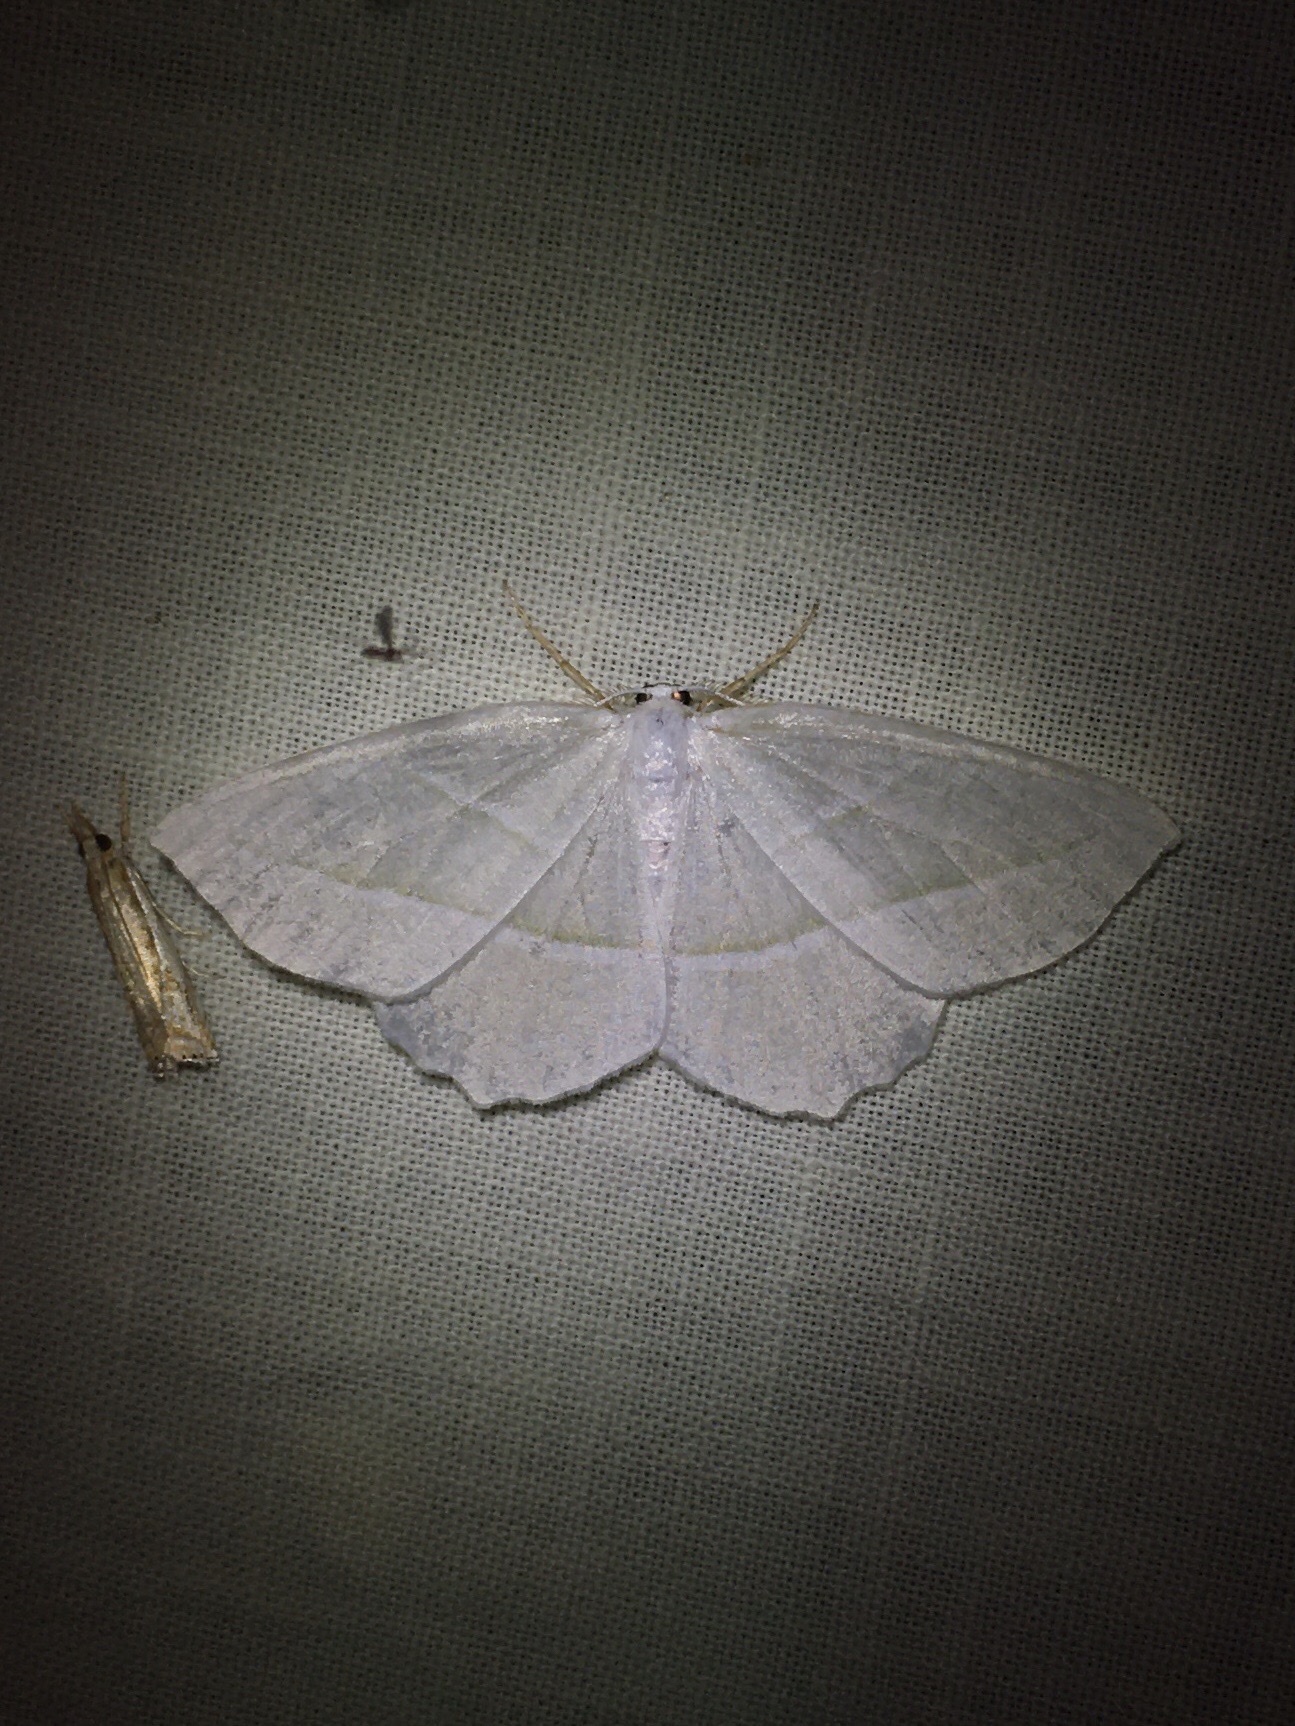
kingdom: Animalia
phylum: Arthropoda
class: Insecta
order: Lepidoptera
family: Geometridae
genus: Campaea
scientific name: Campaea perlata
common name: Fringed looper
